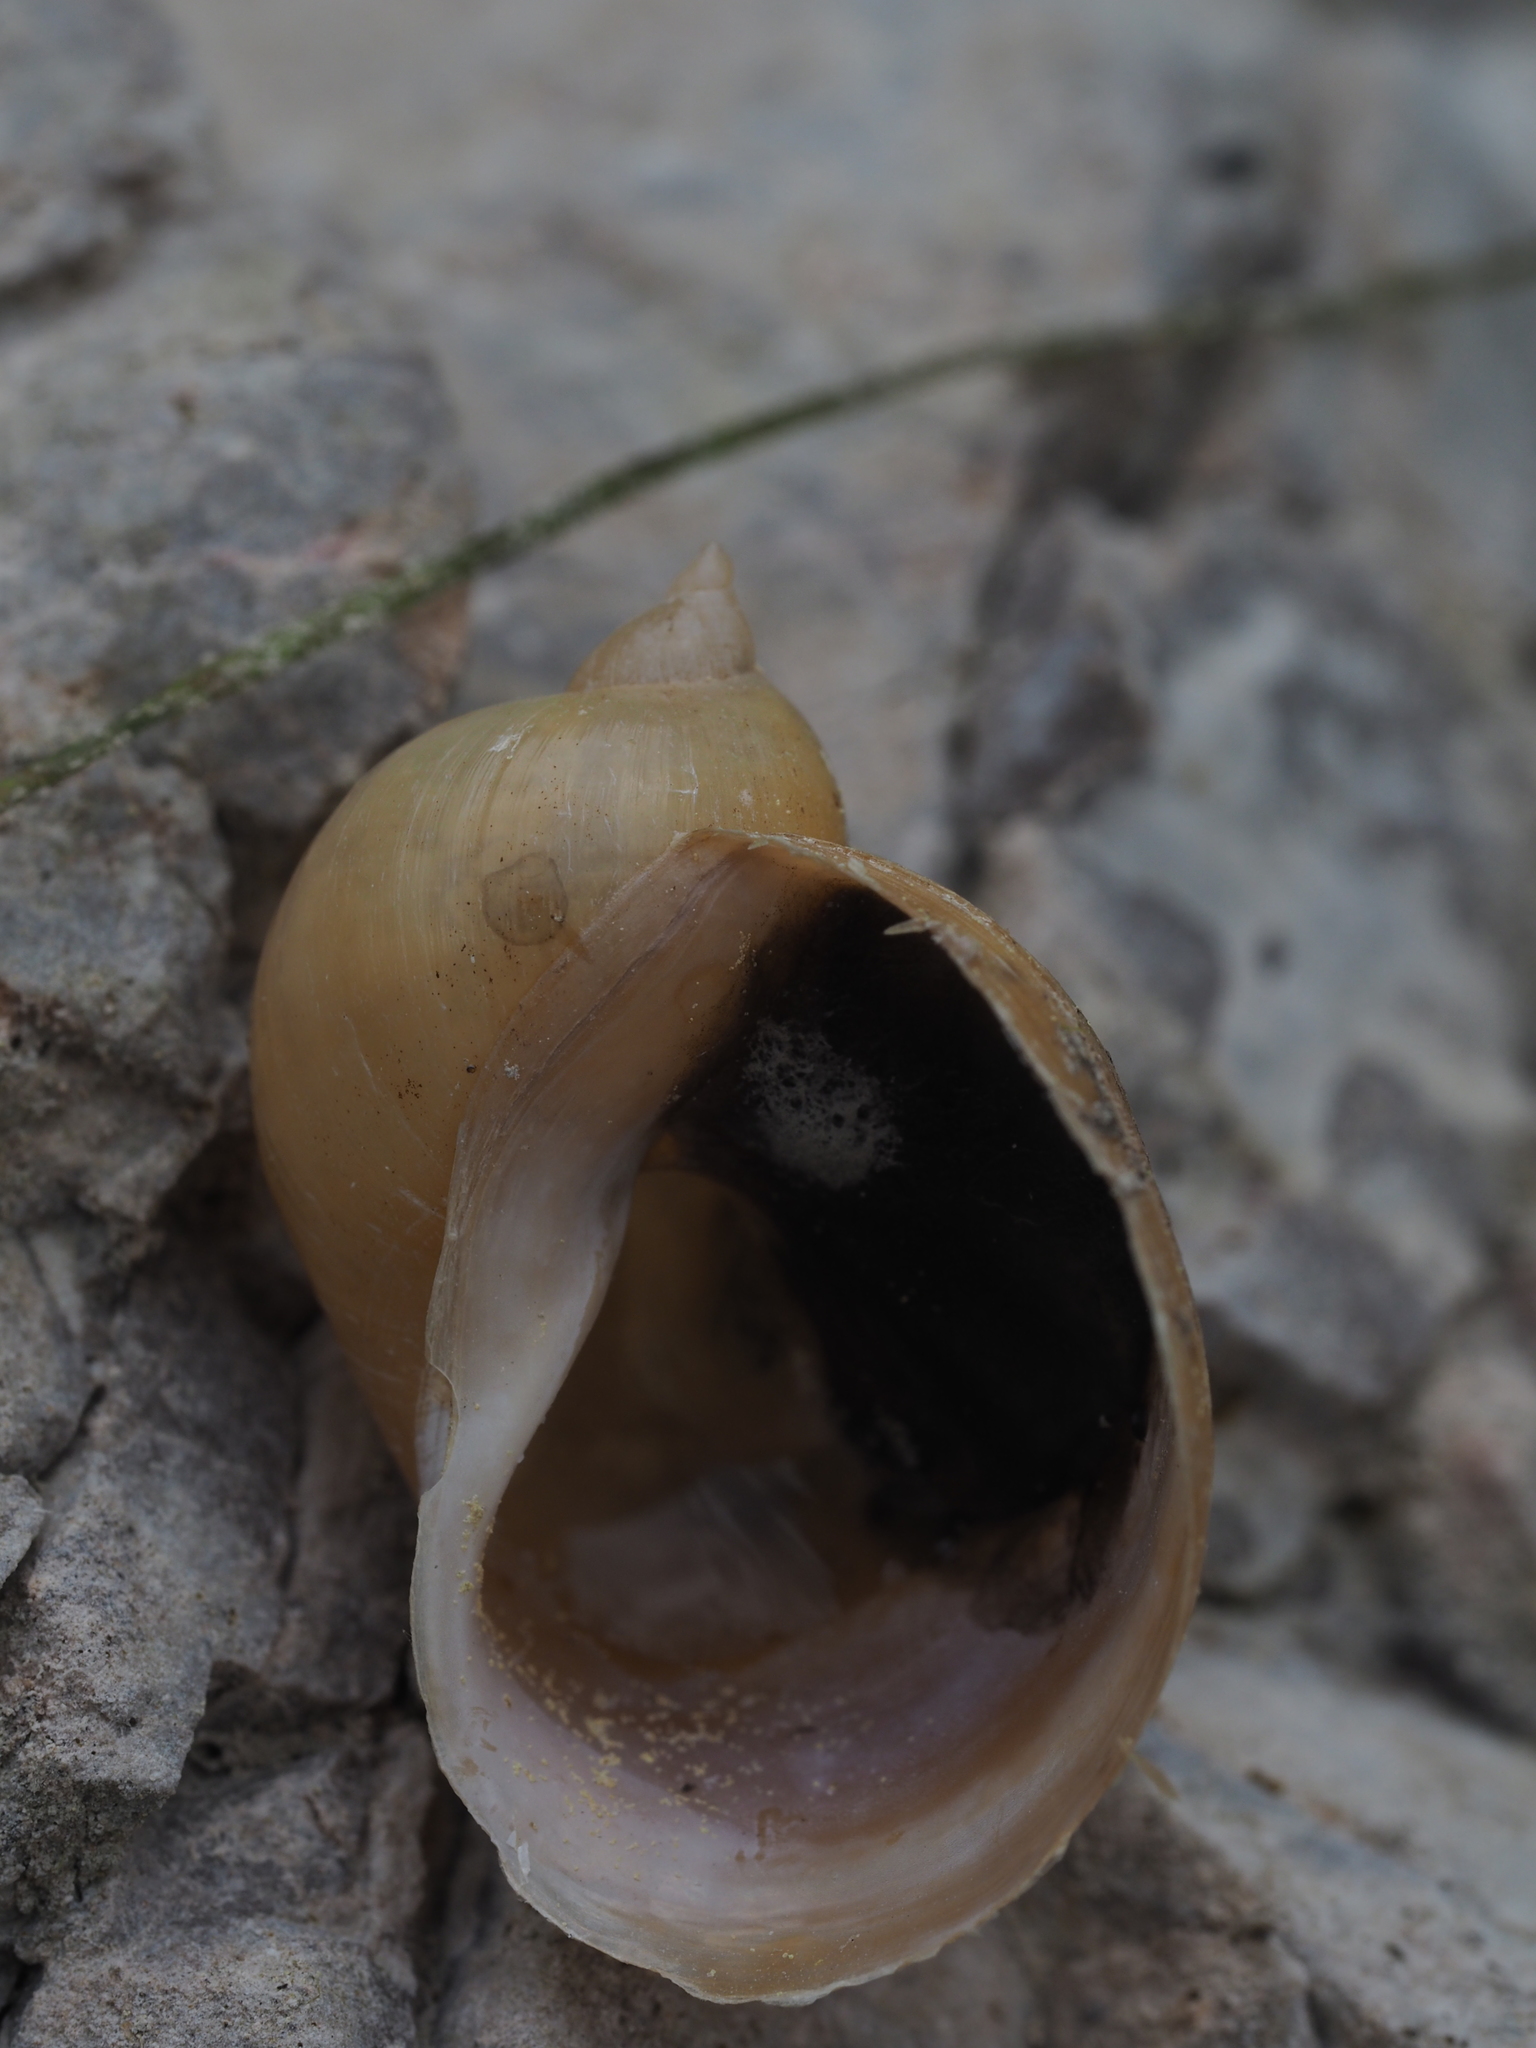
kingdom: Animalia
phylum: Mollusca
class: Gastropoda
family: Lymnaeidae
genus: Radix
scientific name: Radix auricularia
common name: Ear pond snail
